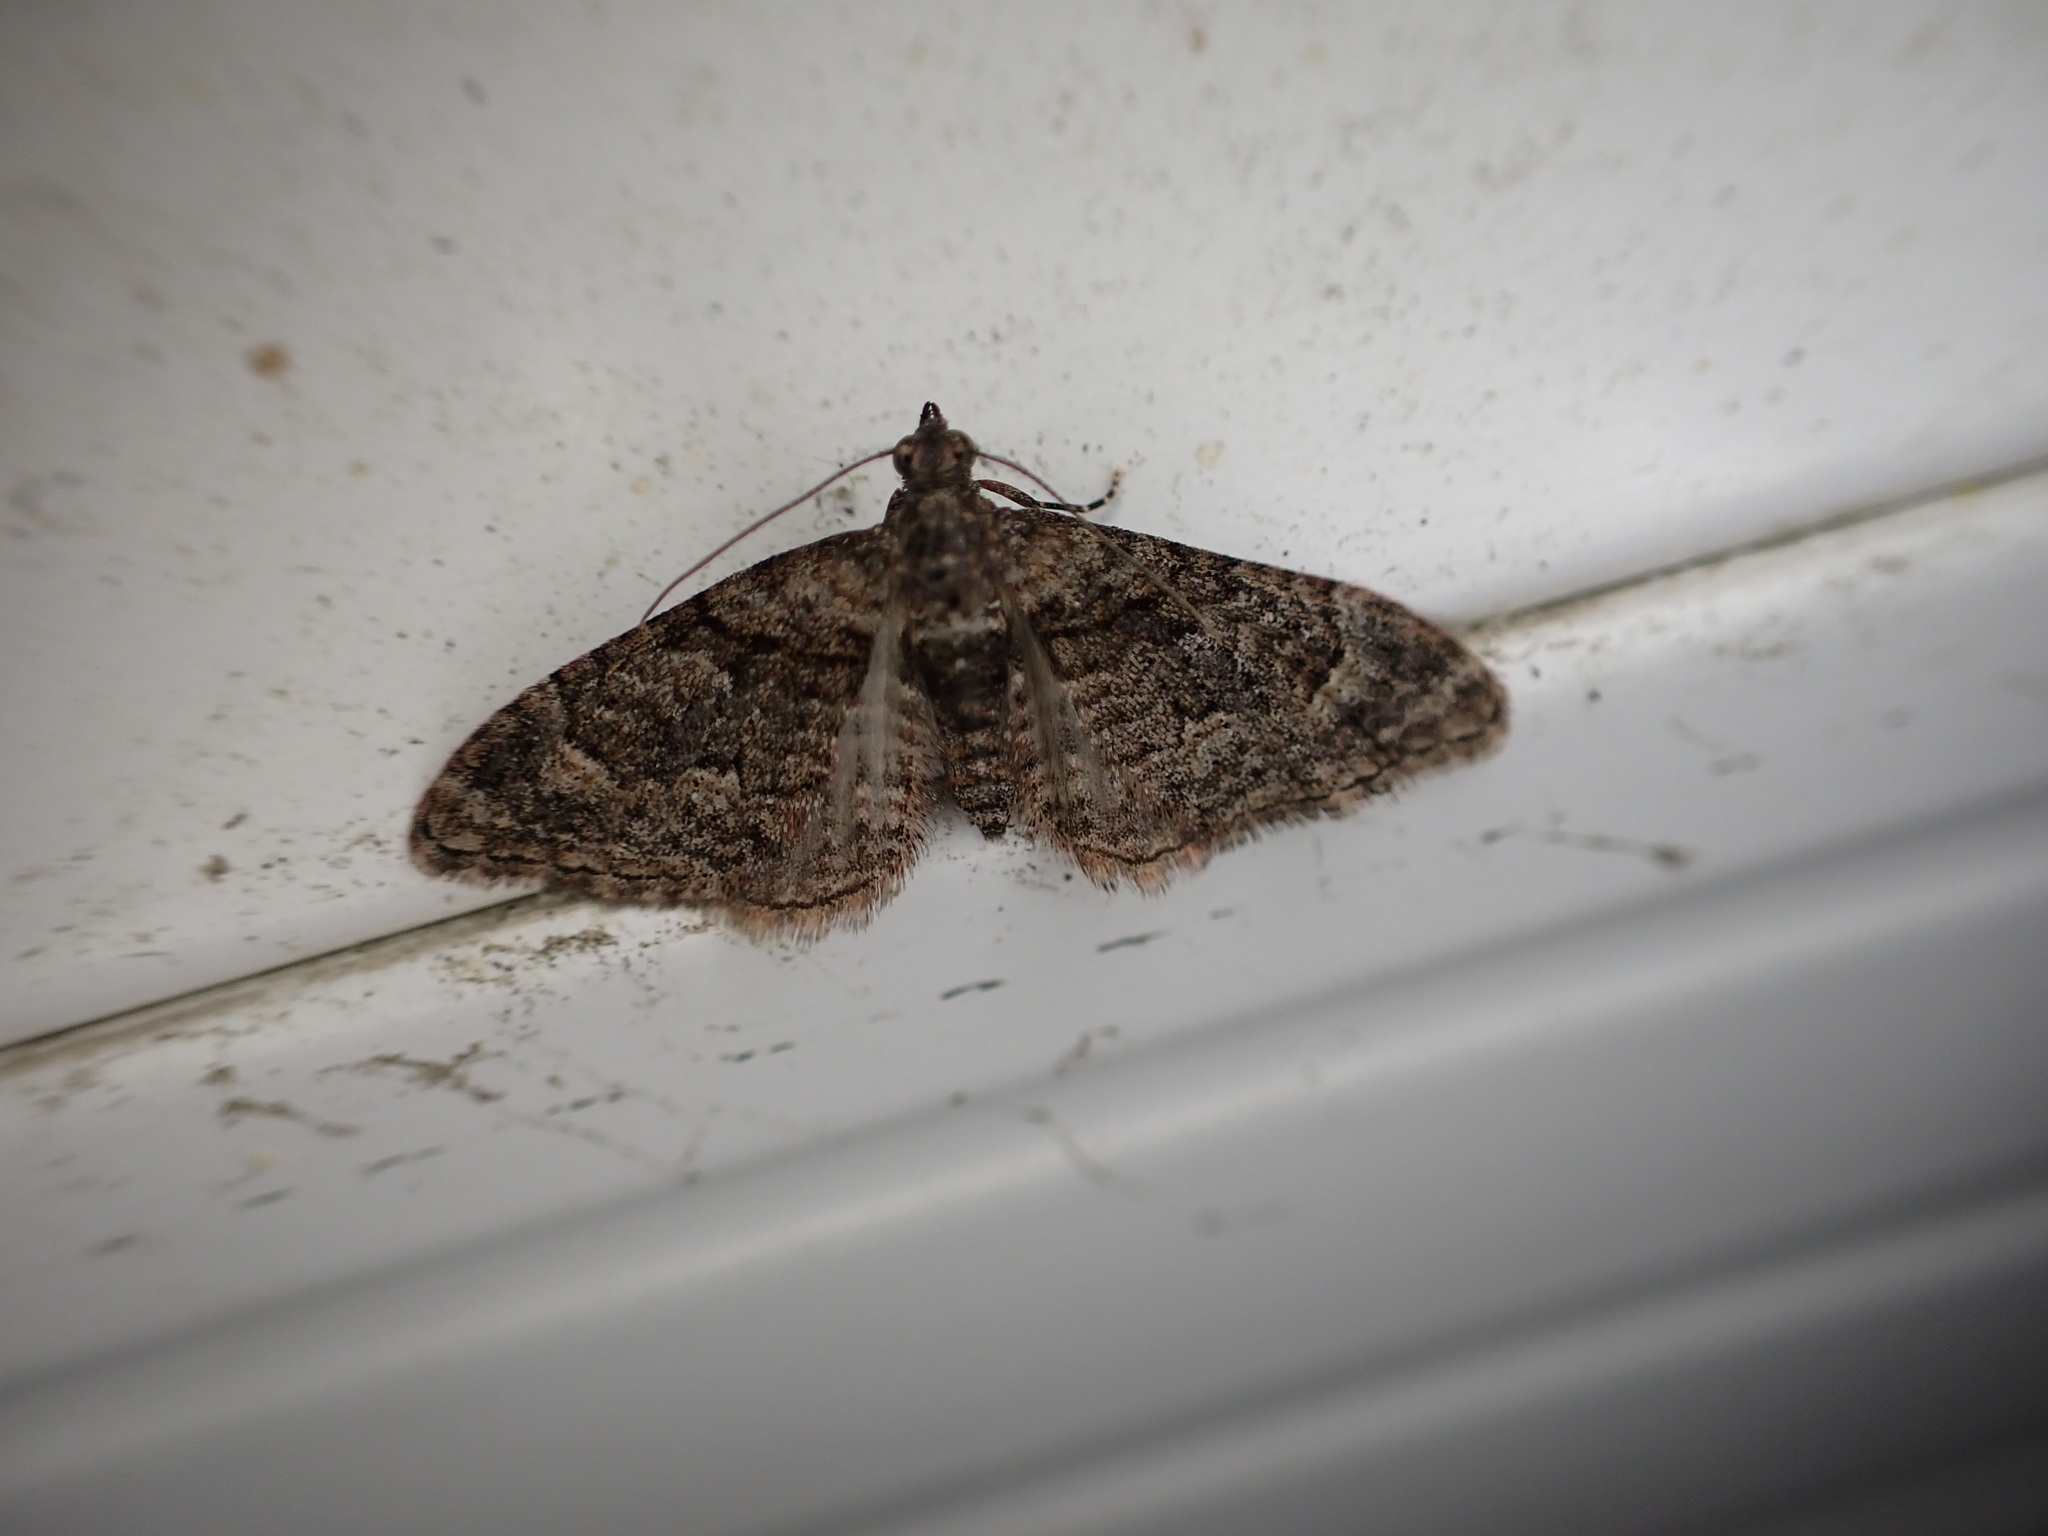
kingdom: Animalia
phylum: Arthropoda
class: Insecta
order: Lepidoptera
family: Geometridae
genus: Phrissogonus
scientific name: Phrissogonus laticostata
